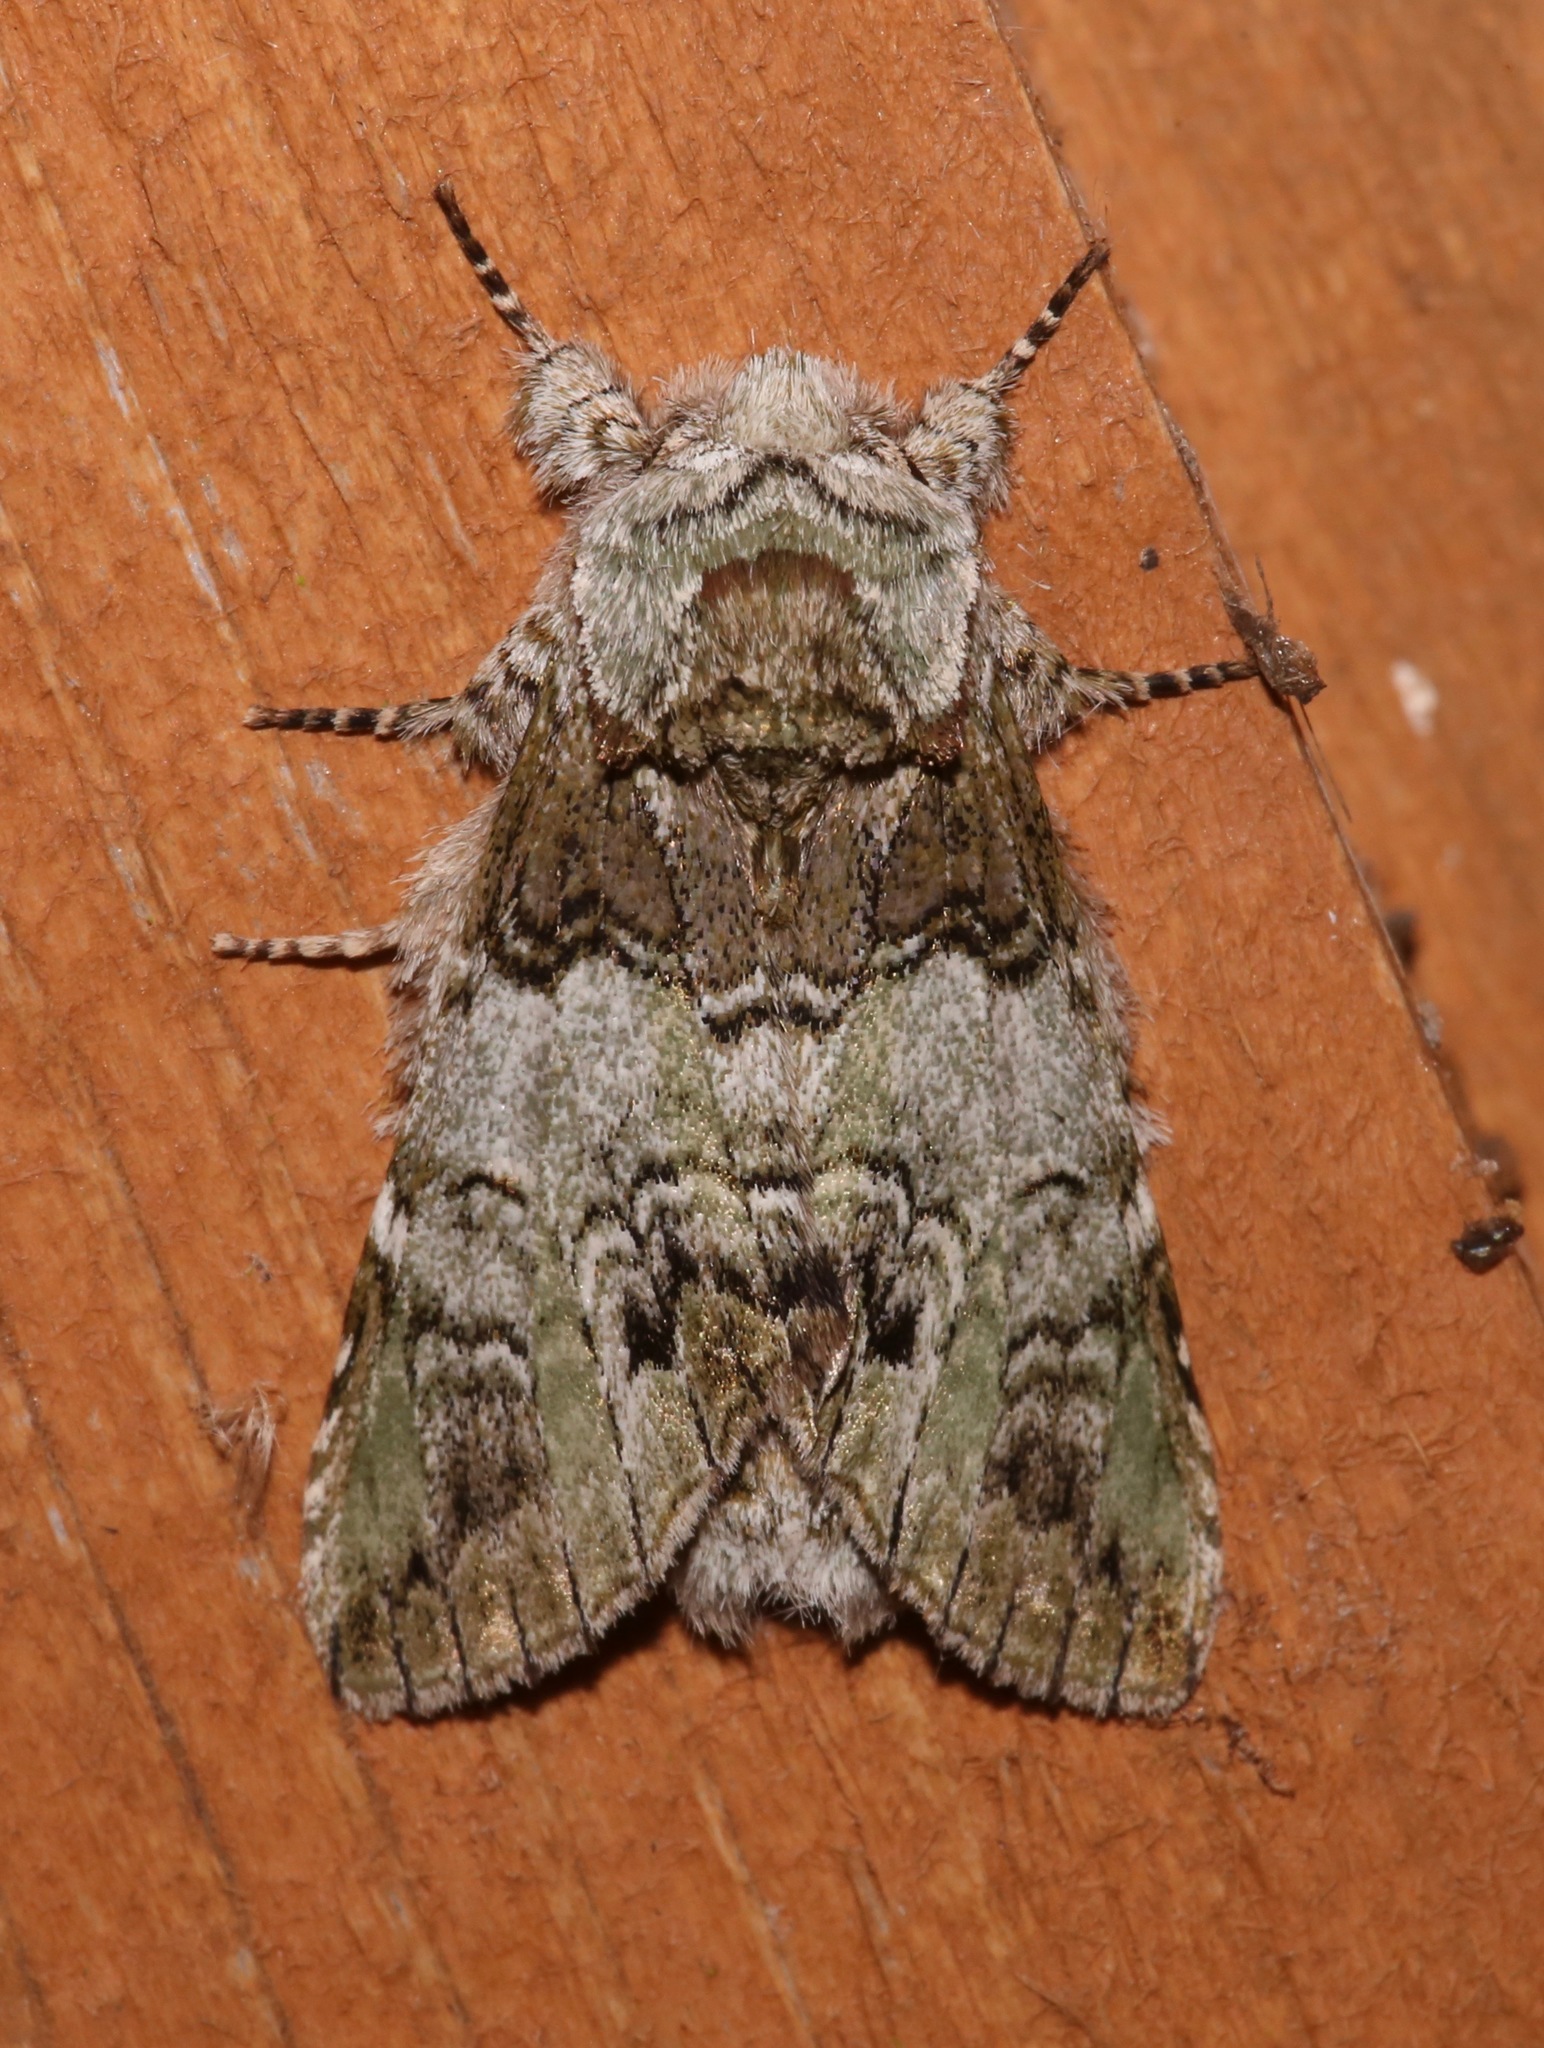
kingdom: Animalia
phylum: Arthropoda
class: Insecta
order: Lepidoptera
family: Notodontidae
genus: Macrurocampa
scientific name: Macrurocampa marthesia
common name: Mottled prominent
